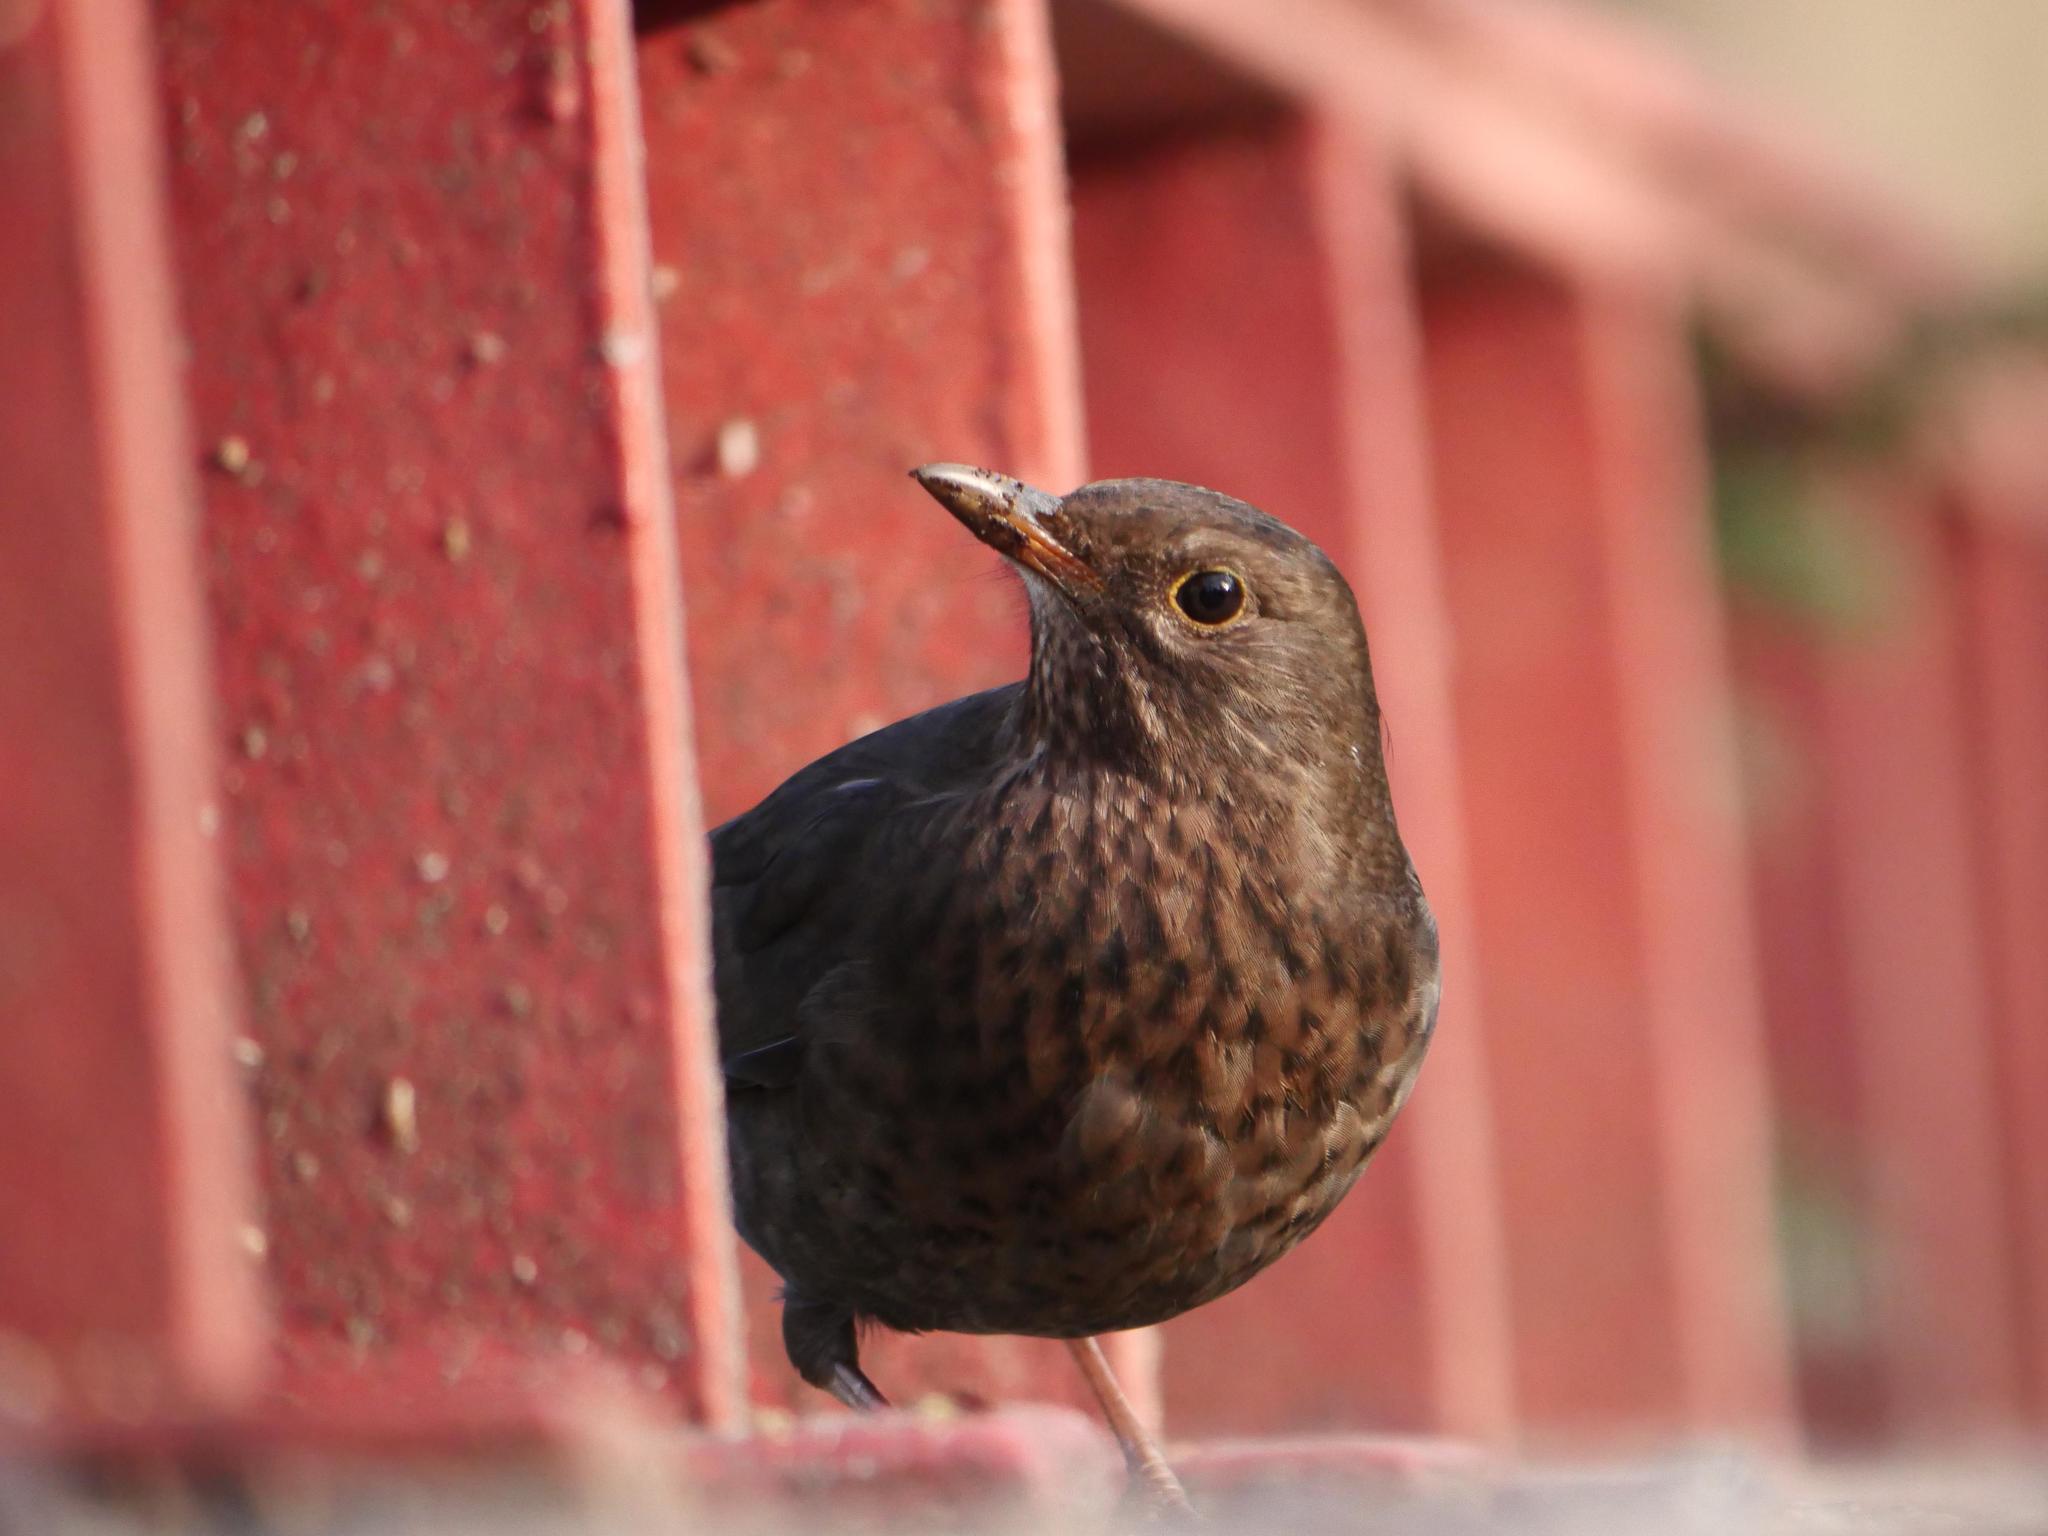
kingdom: Animalia
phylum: Chordata
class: Aves
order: Passeriformes
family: Turdidae
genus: Turdus
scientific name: Turdus merula
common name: Common blackbird
